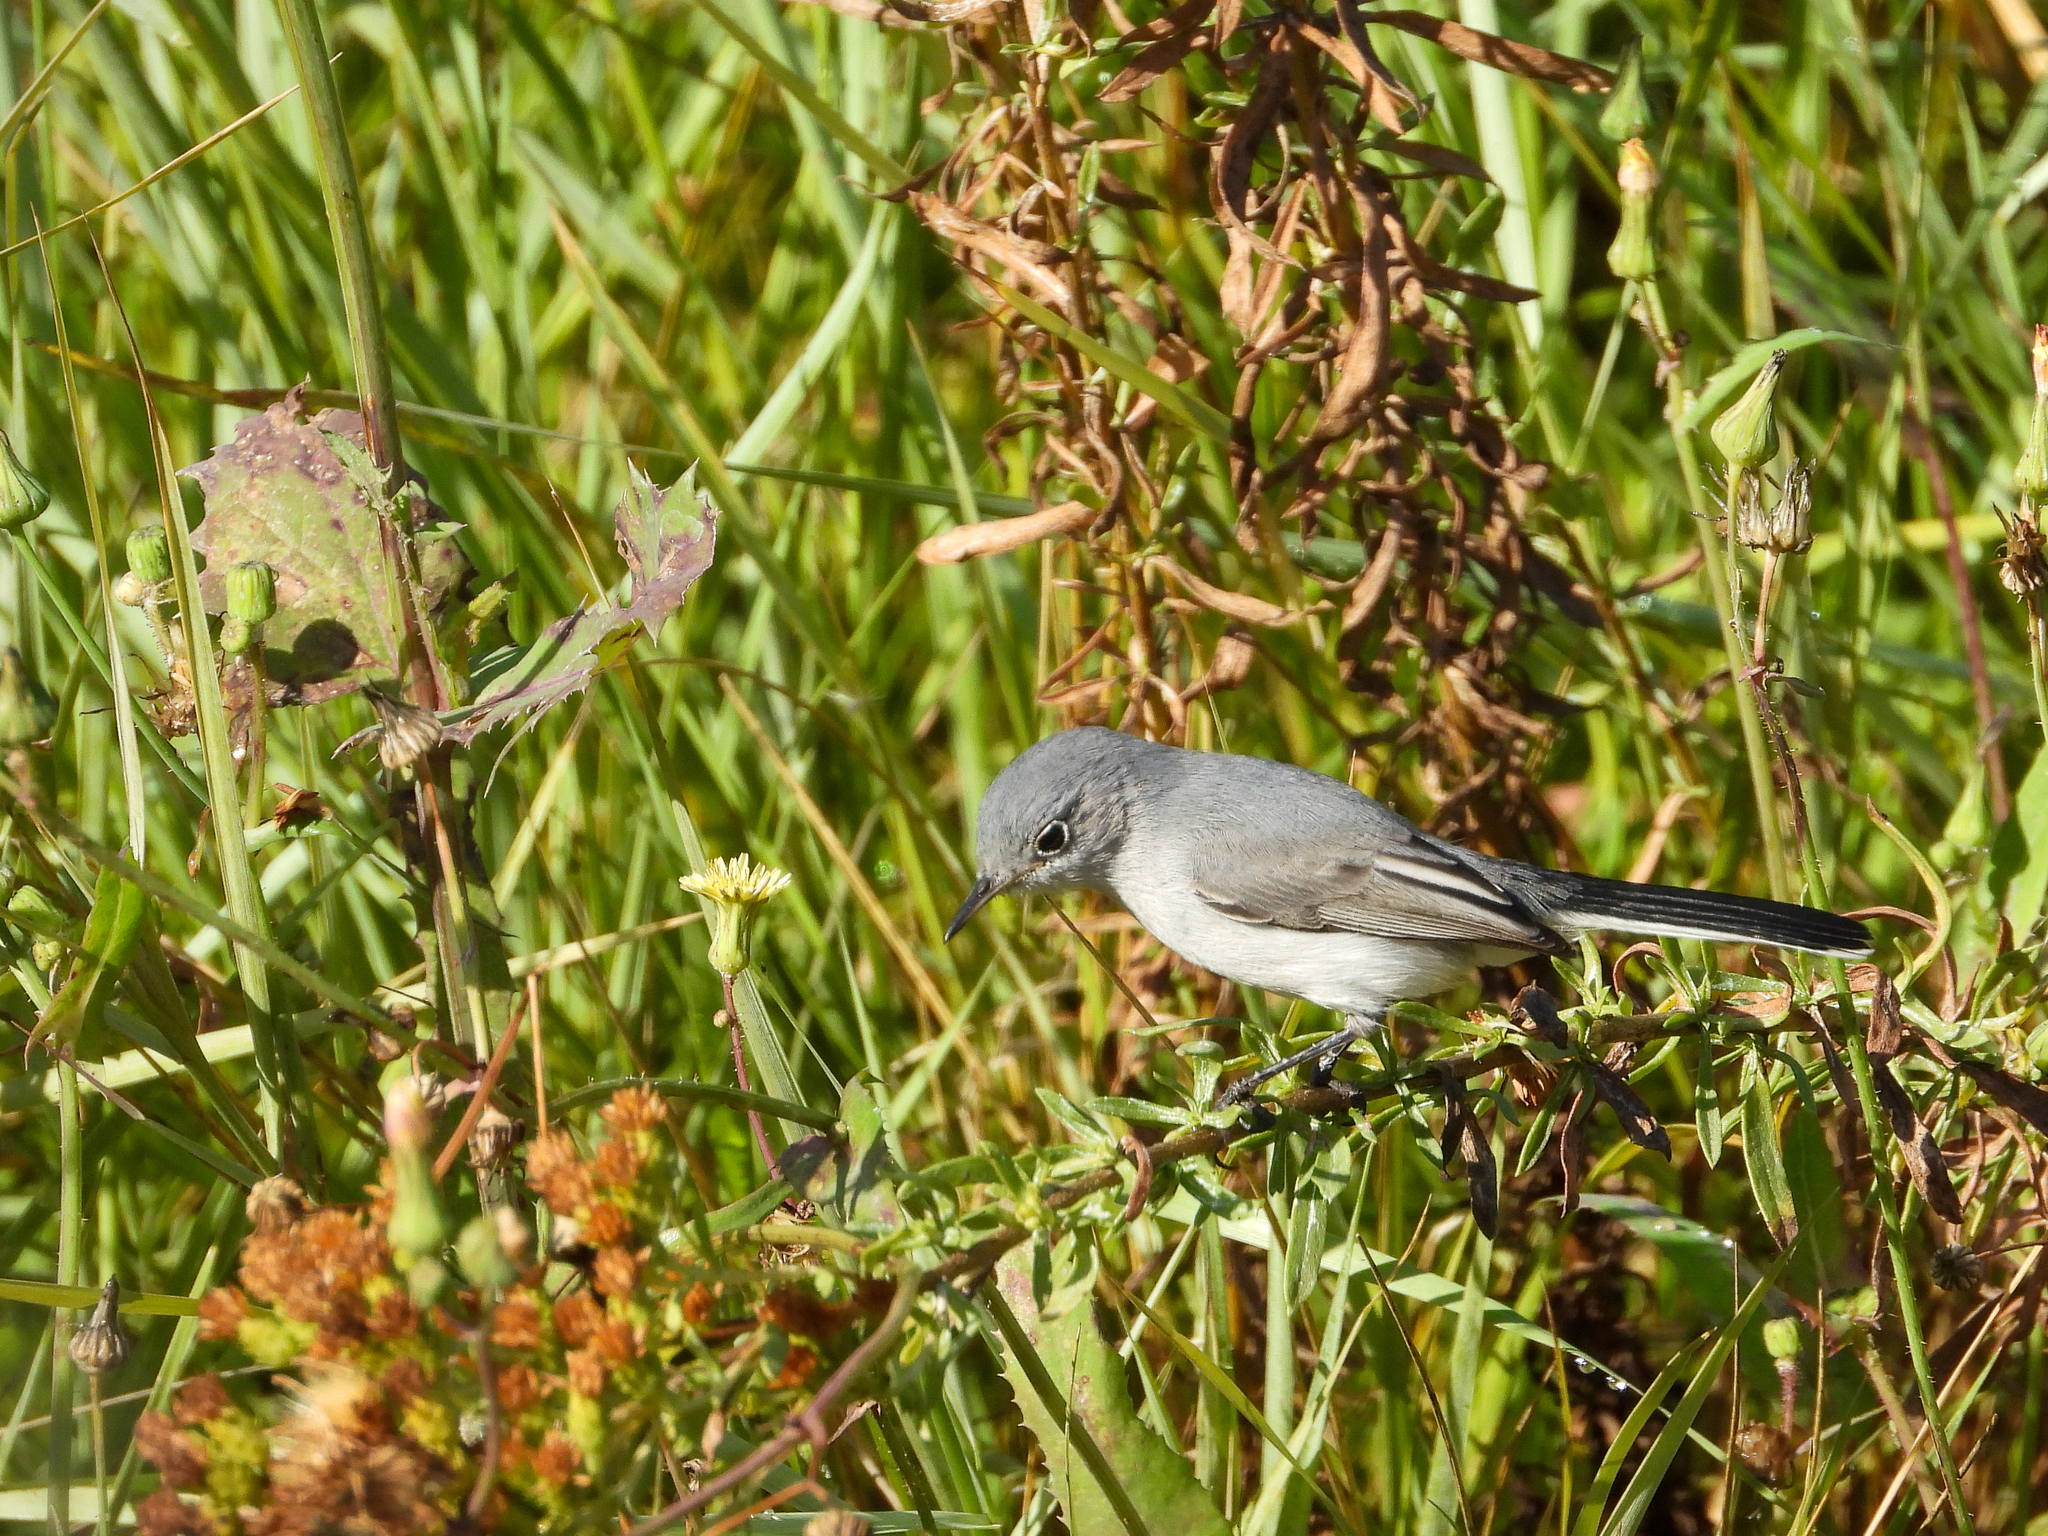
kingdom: Animalia
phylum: Chordata
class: Aves
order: Passeriformes
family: Polioptilidae
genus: Polioptila
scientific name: Polioptila caerulea
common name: Blue-gray gnatcatcher
